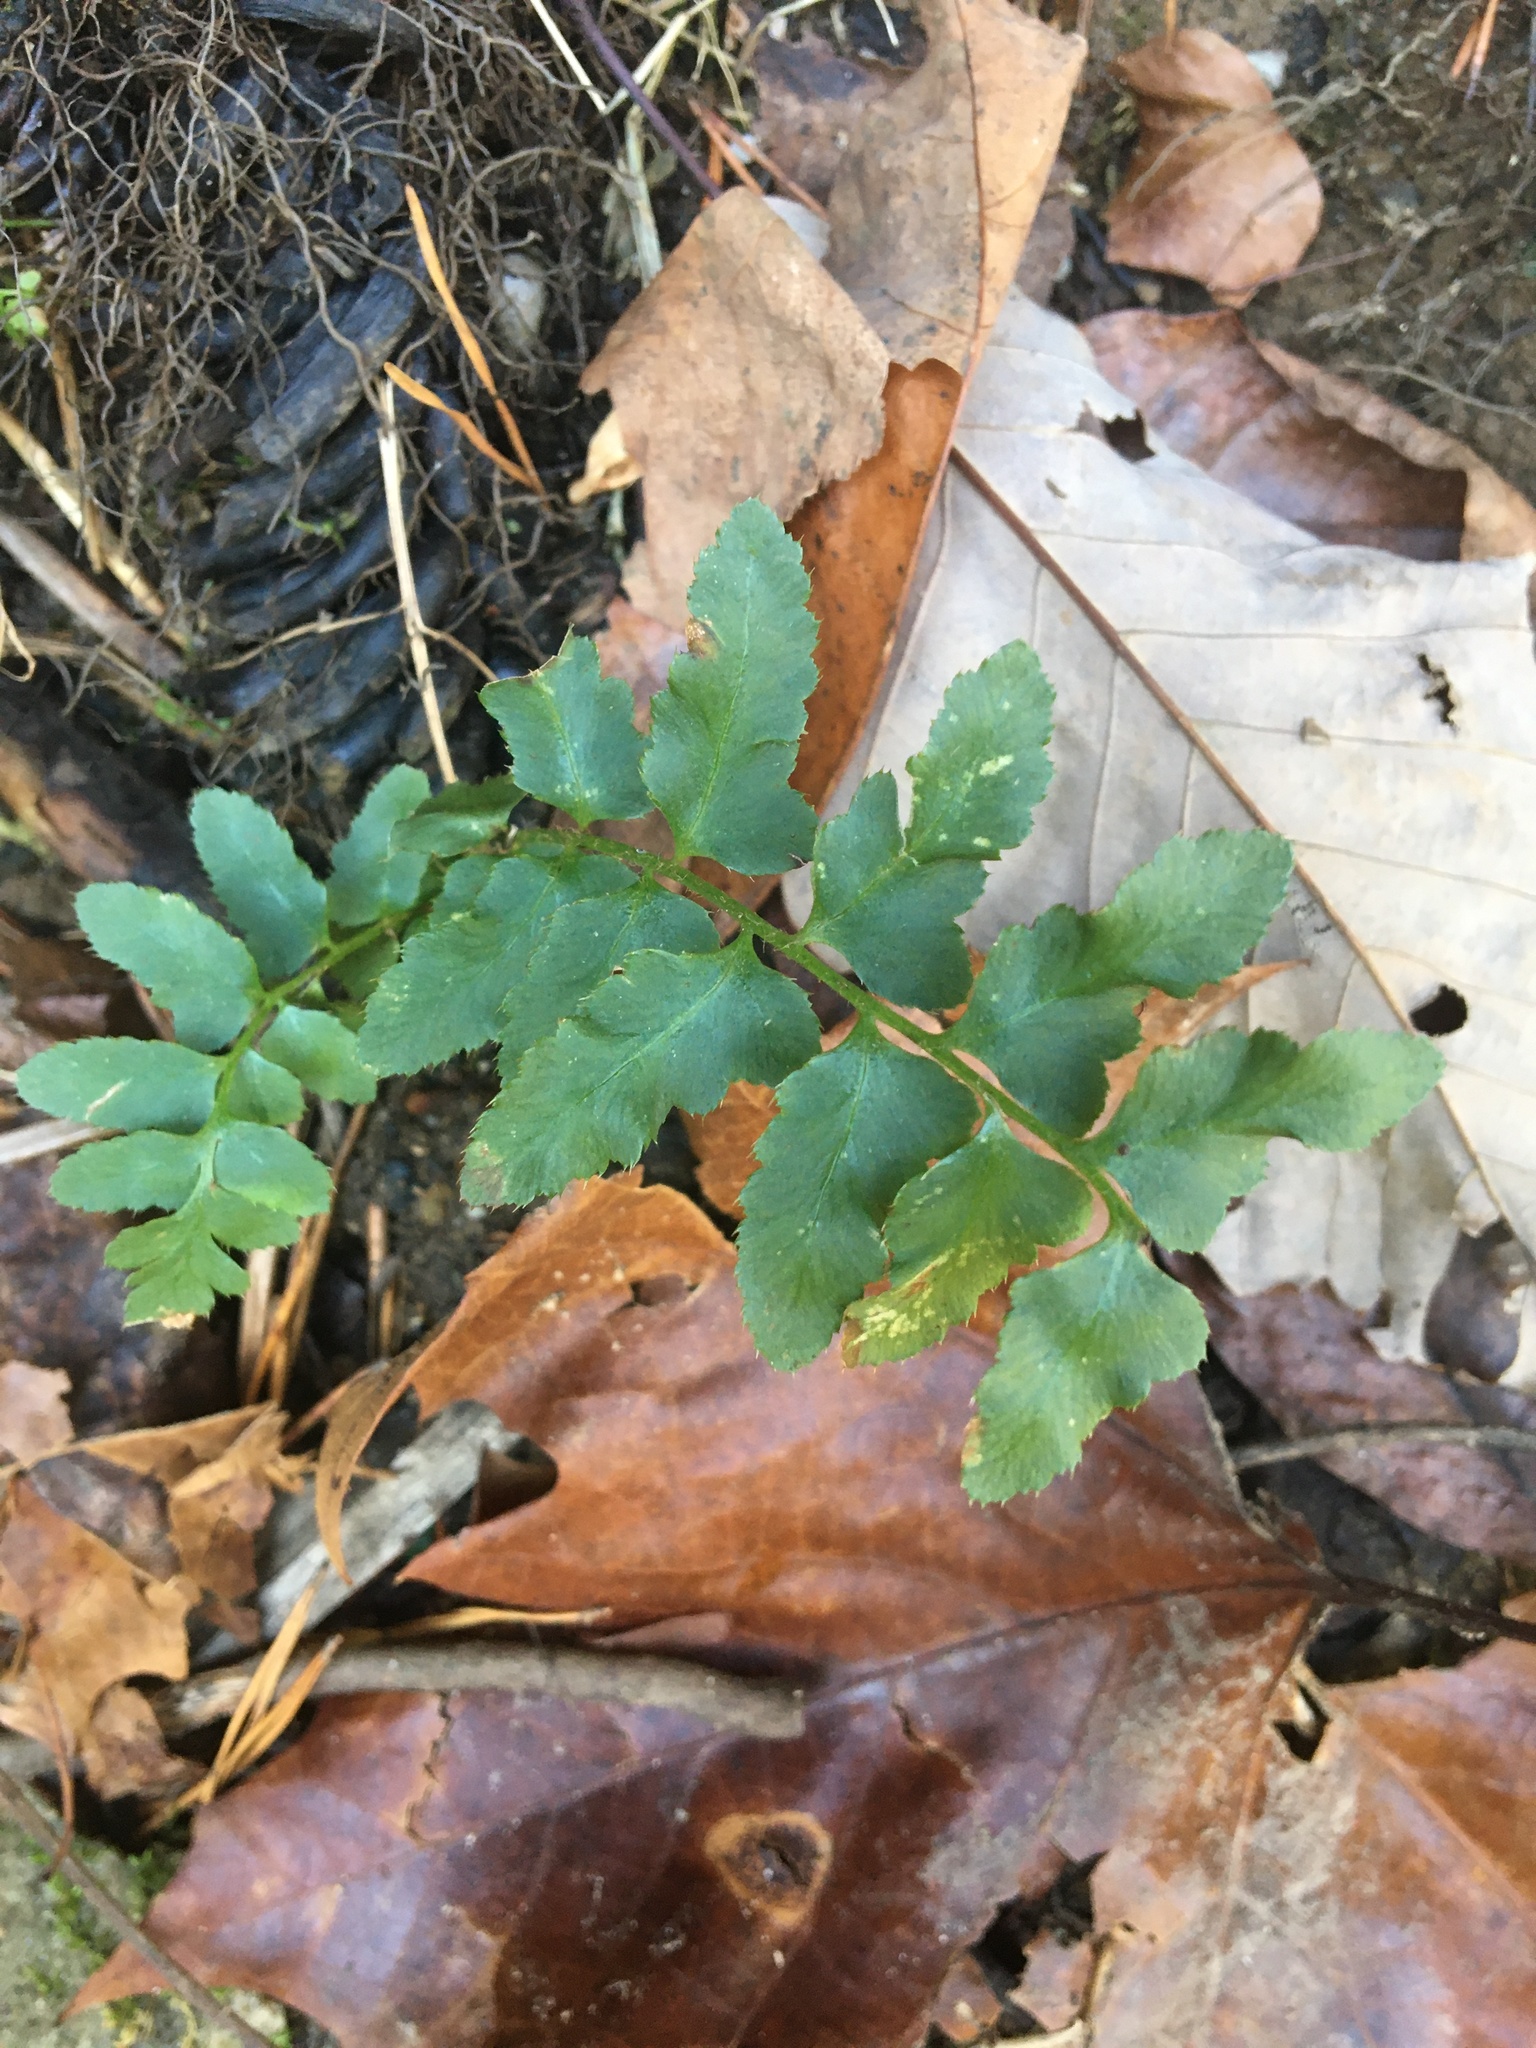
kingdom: Plantae
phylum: Tracheophyta
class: Polypodiopsida
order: Polypodiales
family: Dryopteridaceae
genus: Polystichum
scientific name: Polystichum acrostichoides
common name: Christmas fern
